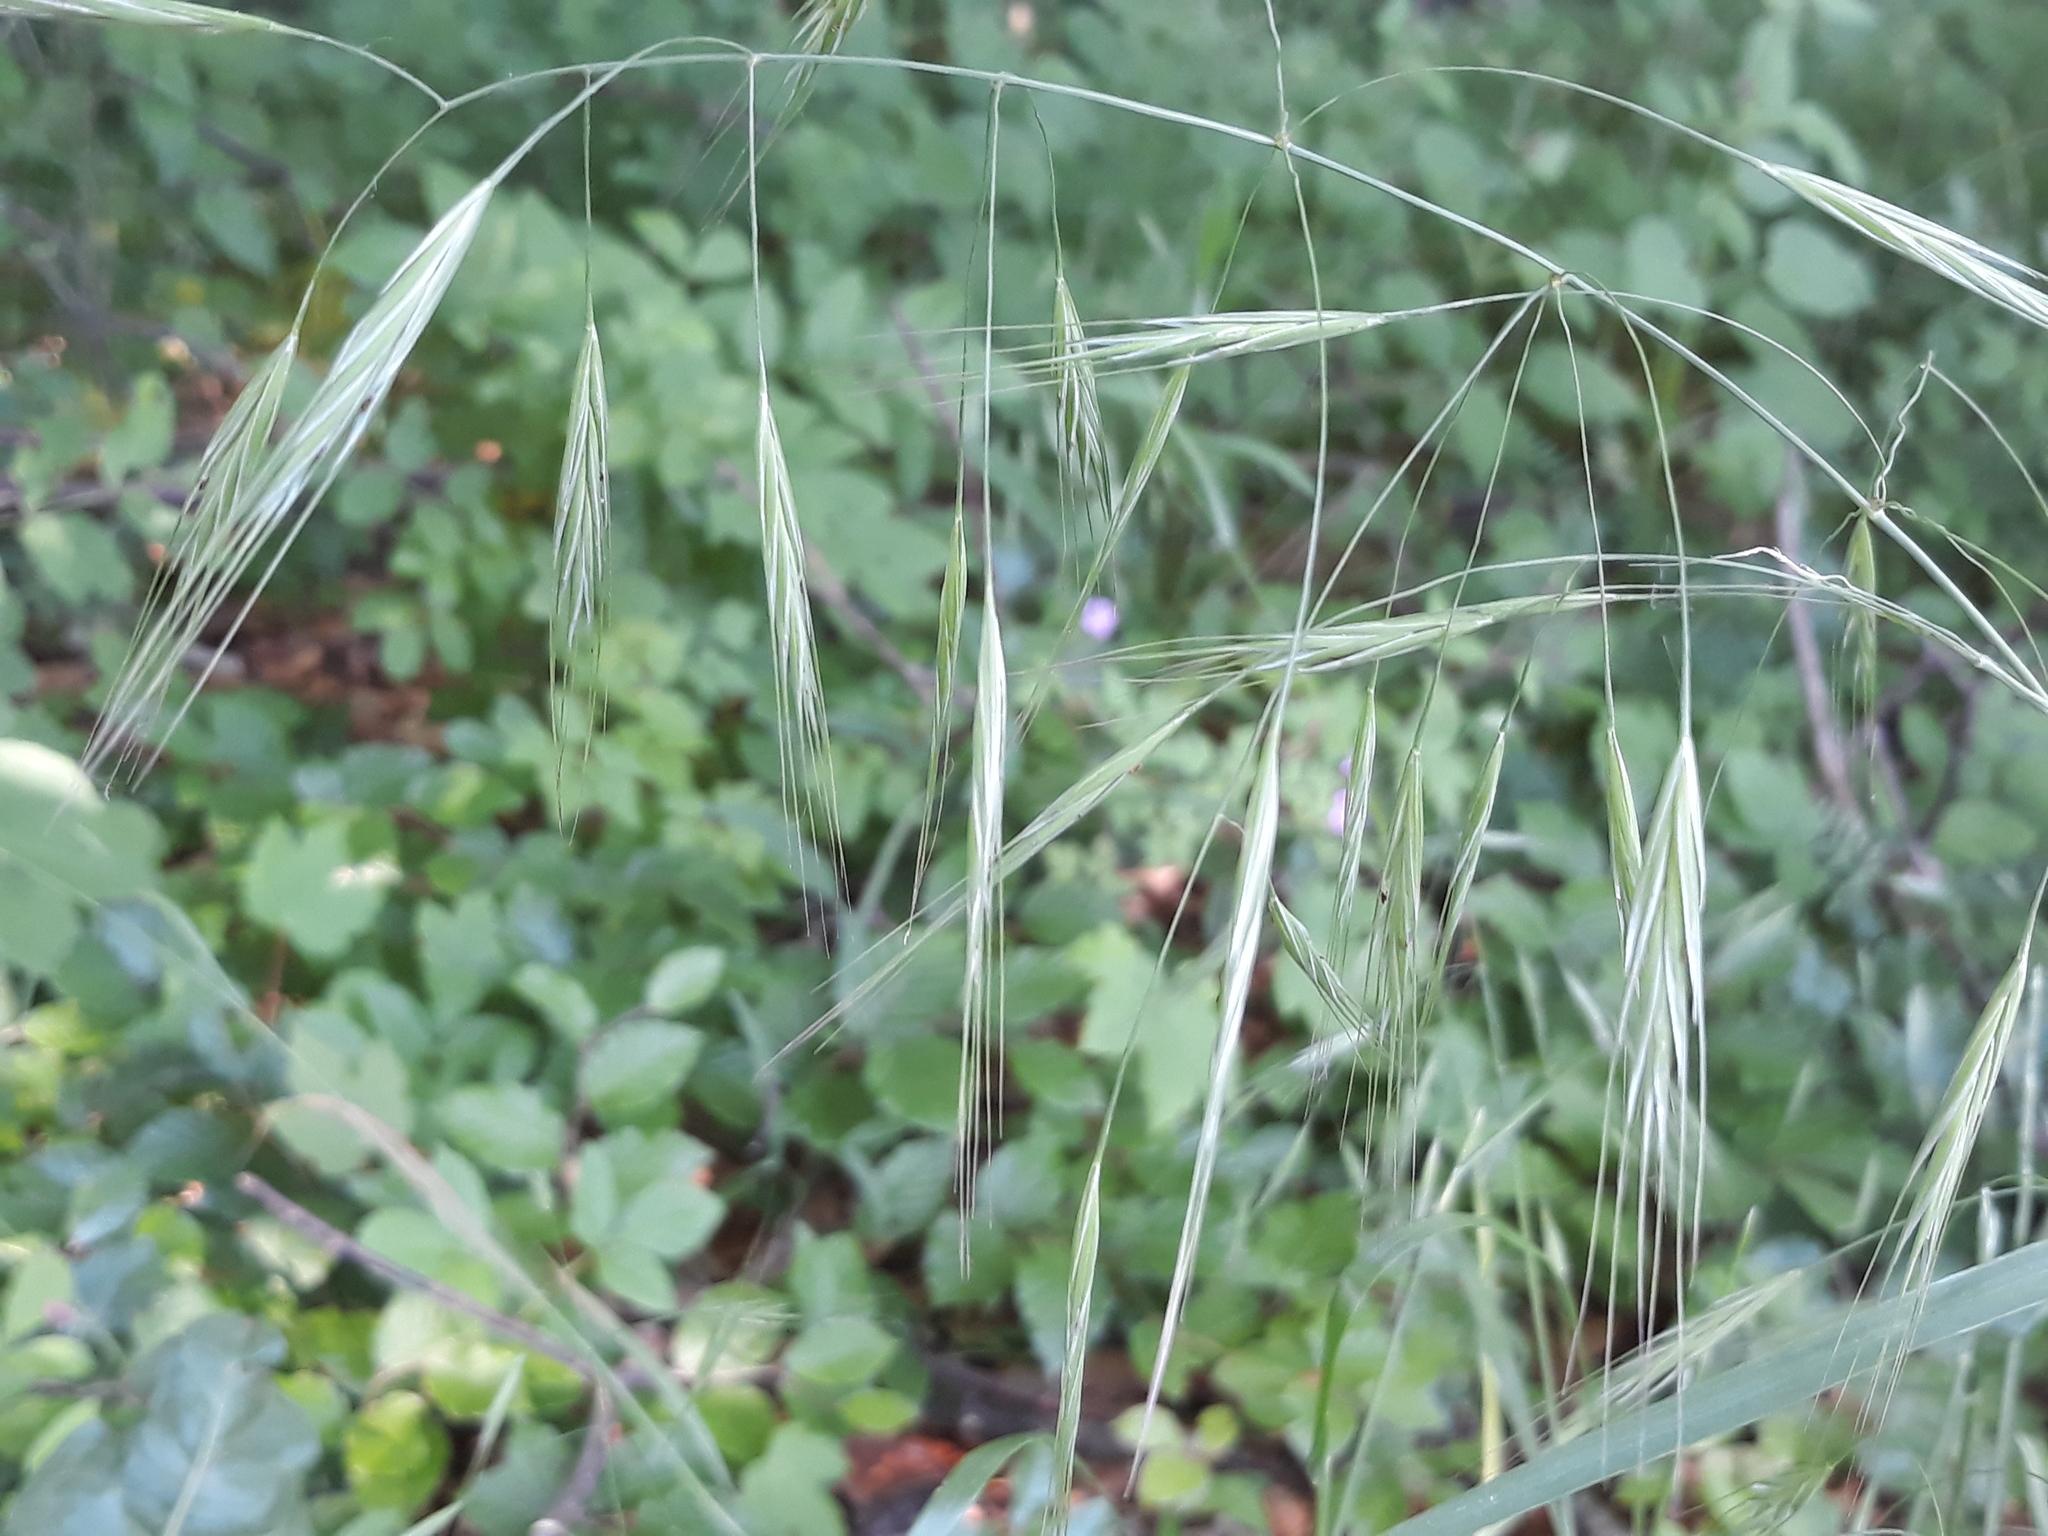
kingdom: Plantae
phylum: Tracheophyta
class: Liliopsida
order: Poales
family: Poaceae
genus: Bromus
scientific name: Bromus sterilis
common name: Poverty brome
